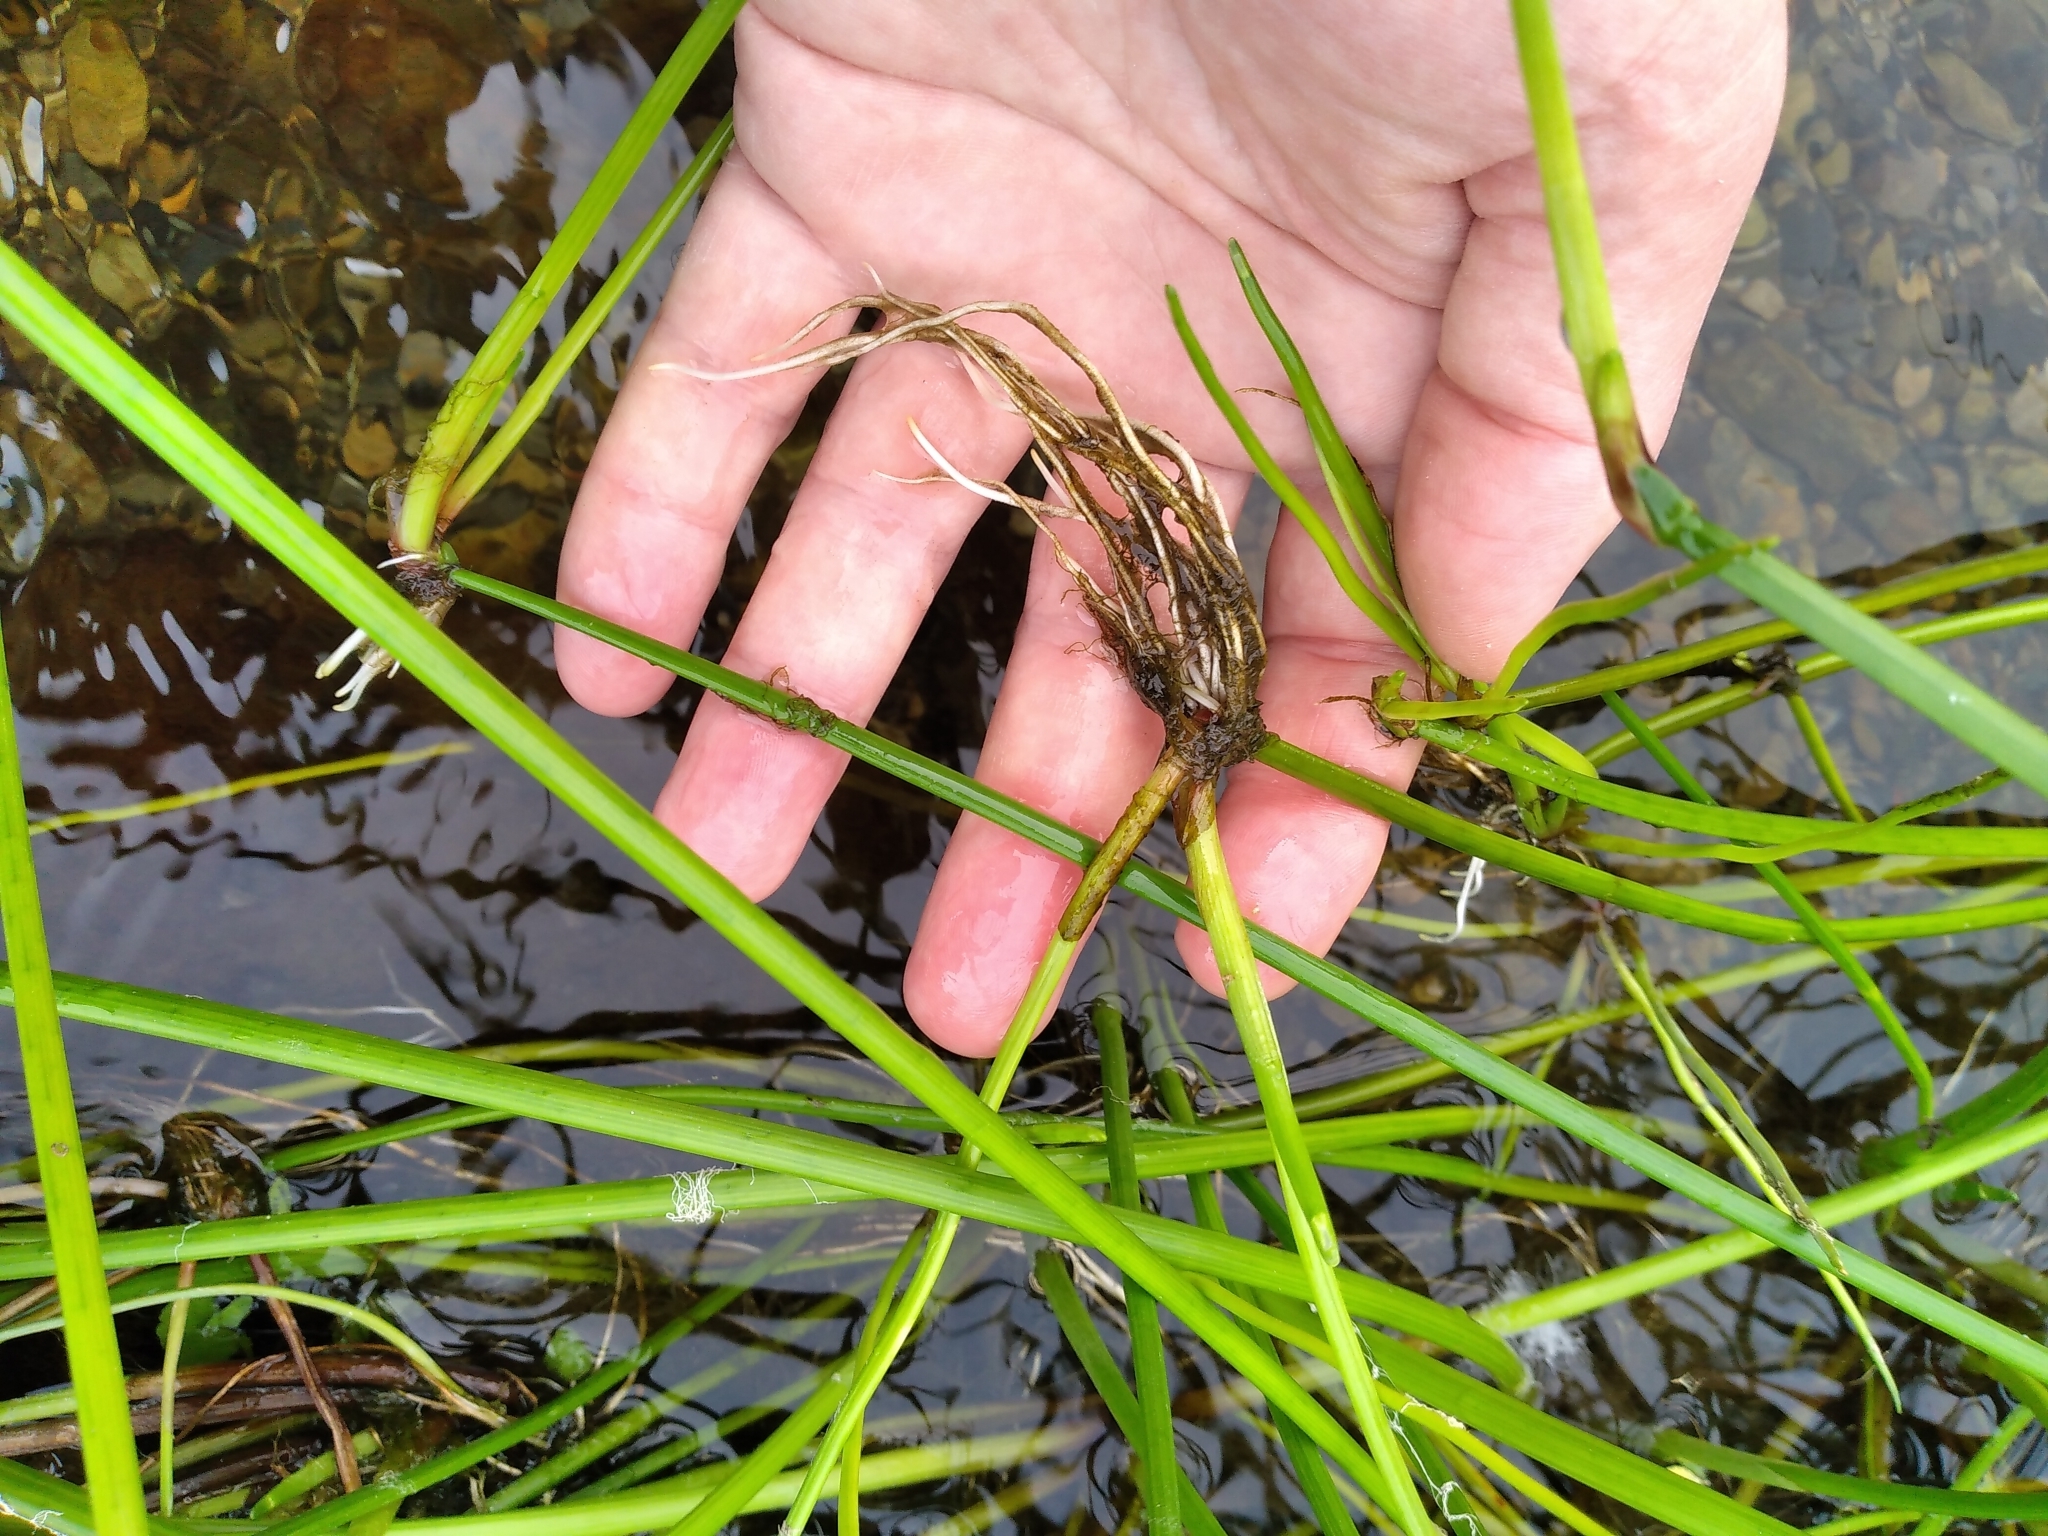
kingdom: Plantae
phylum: Tracheophyta
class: Liliopsida
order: Poales
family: Cyperaceae
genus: Isolepis
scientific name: Isolepis prolifera
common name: Proliferating bulrush
